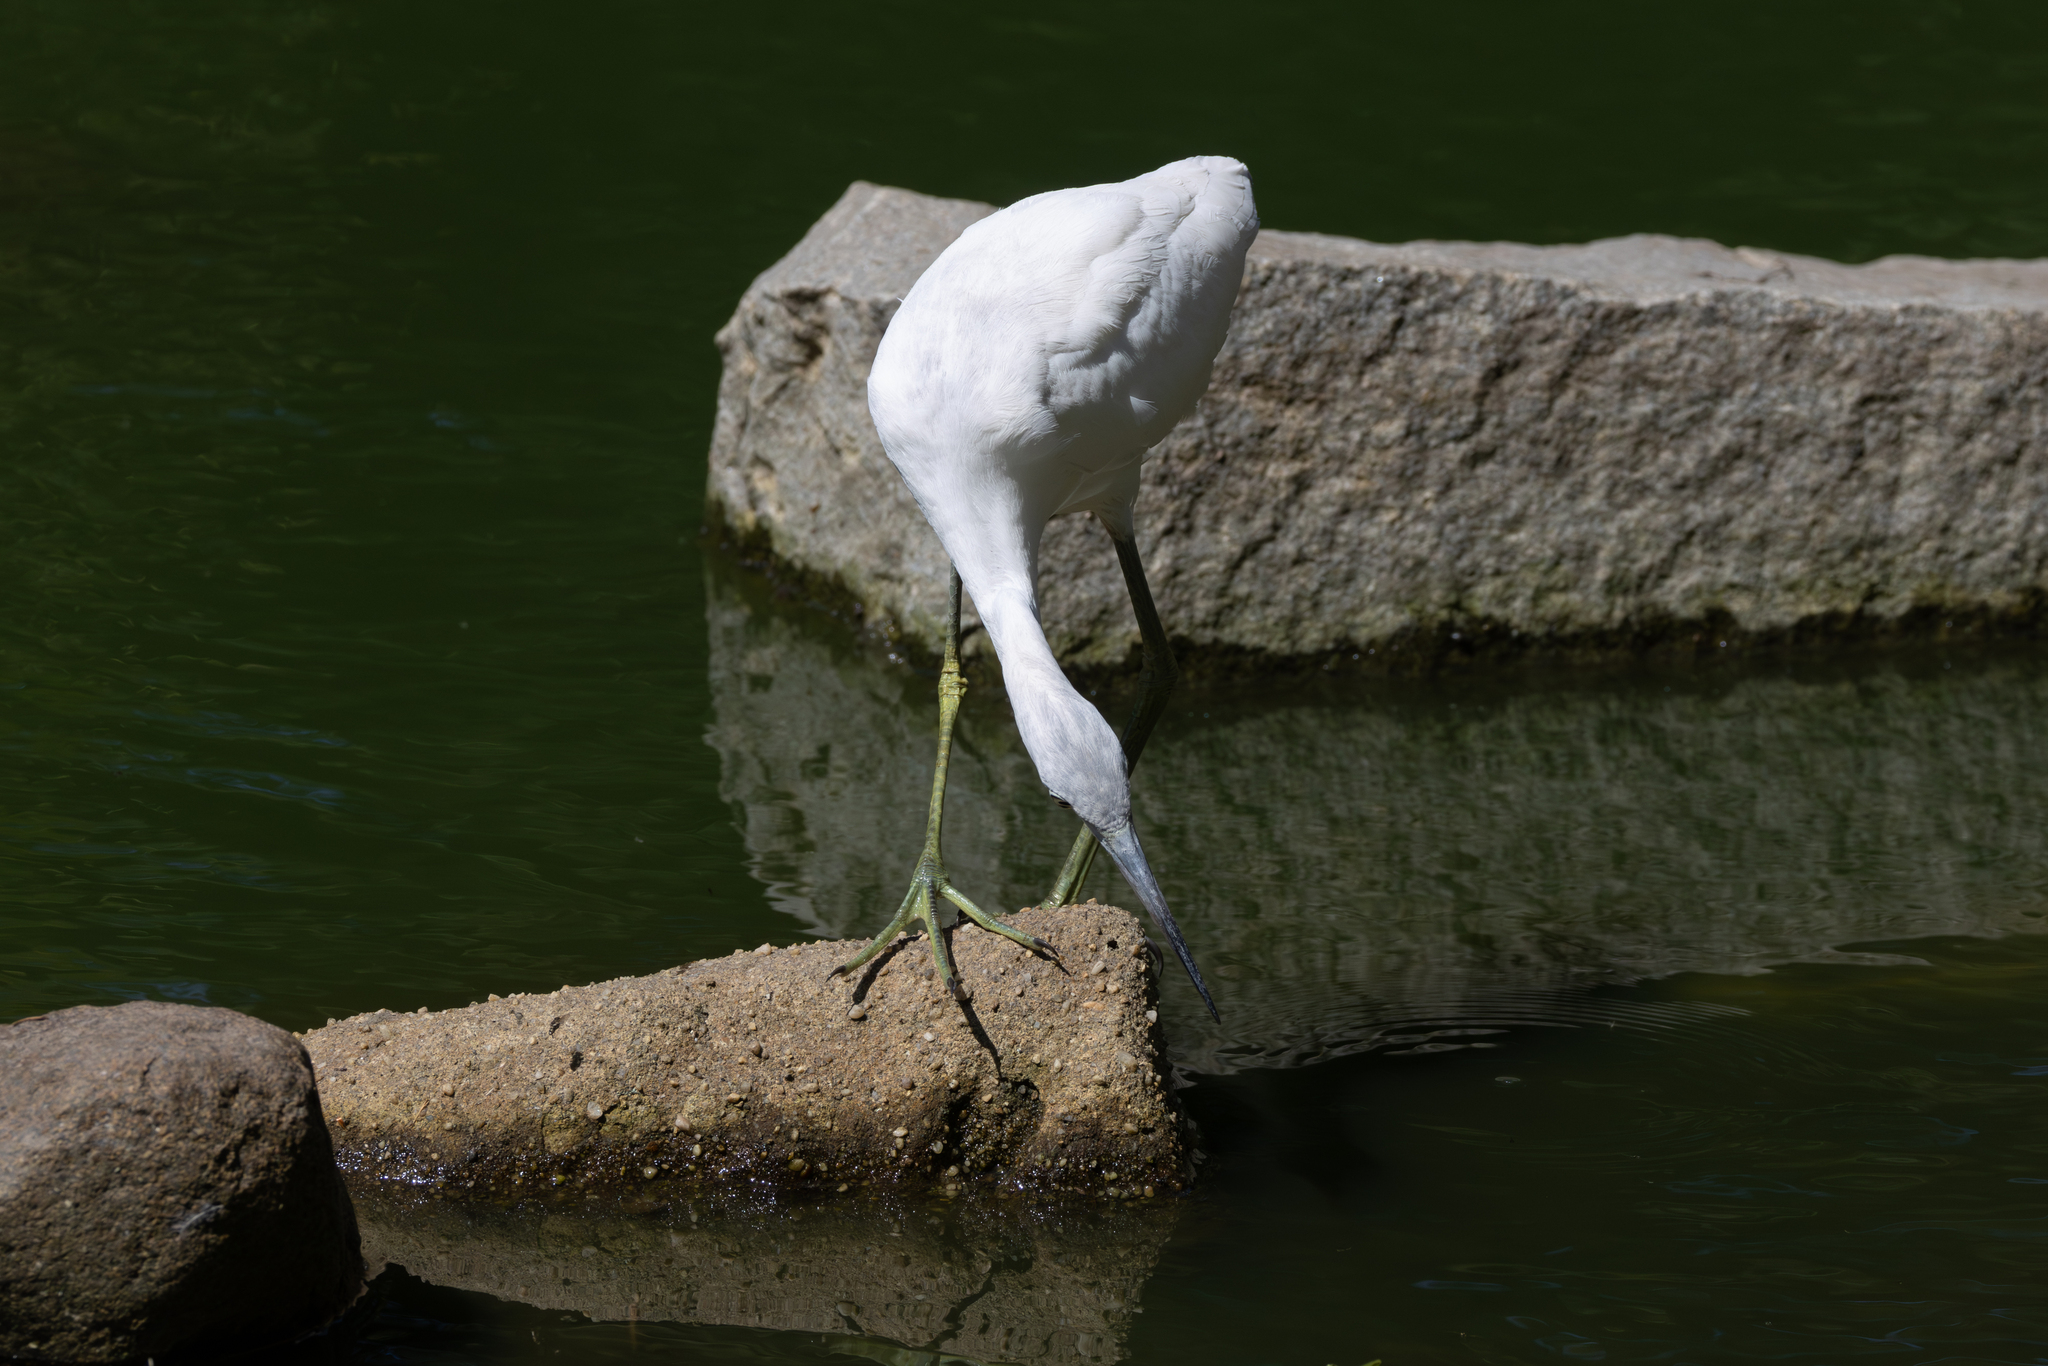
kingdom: Animalia
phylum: Chordata
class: Aves
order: Pelecaniformes
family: Ardeidae
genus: Egretta
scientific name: Egretta caerulea
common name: Little blue heron
